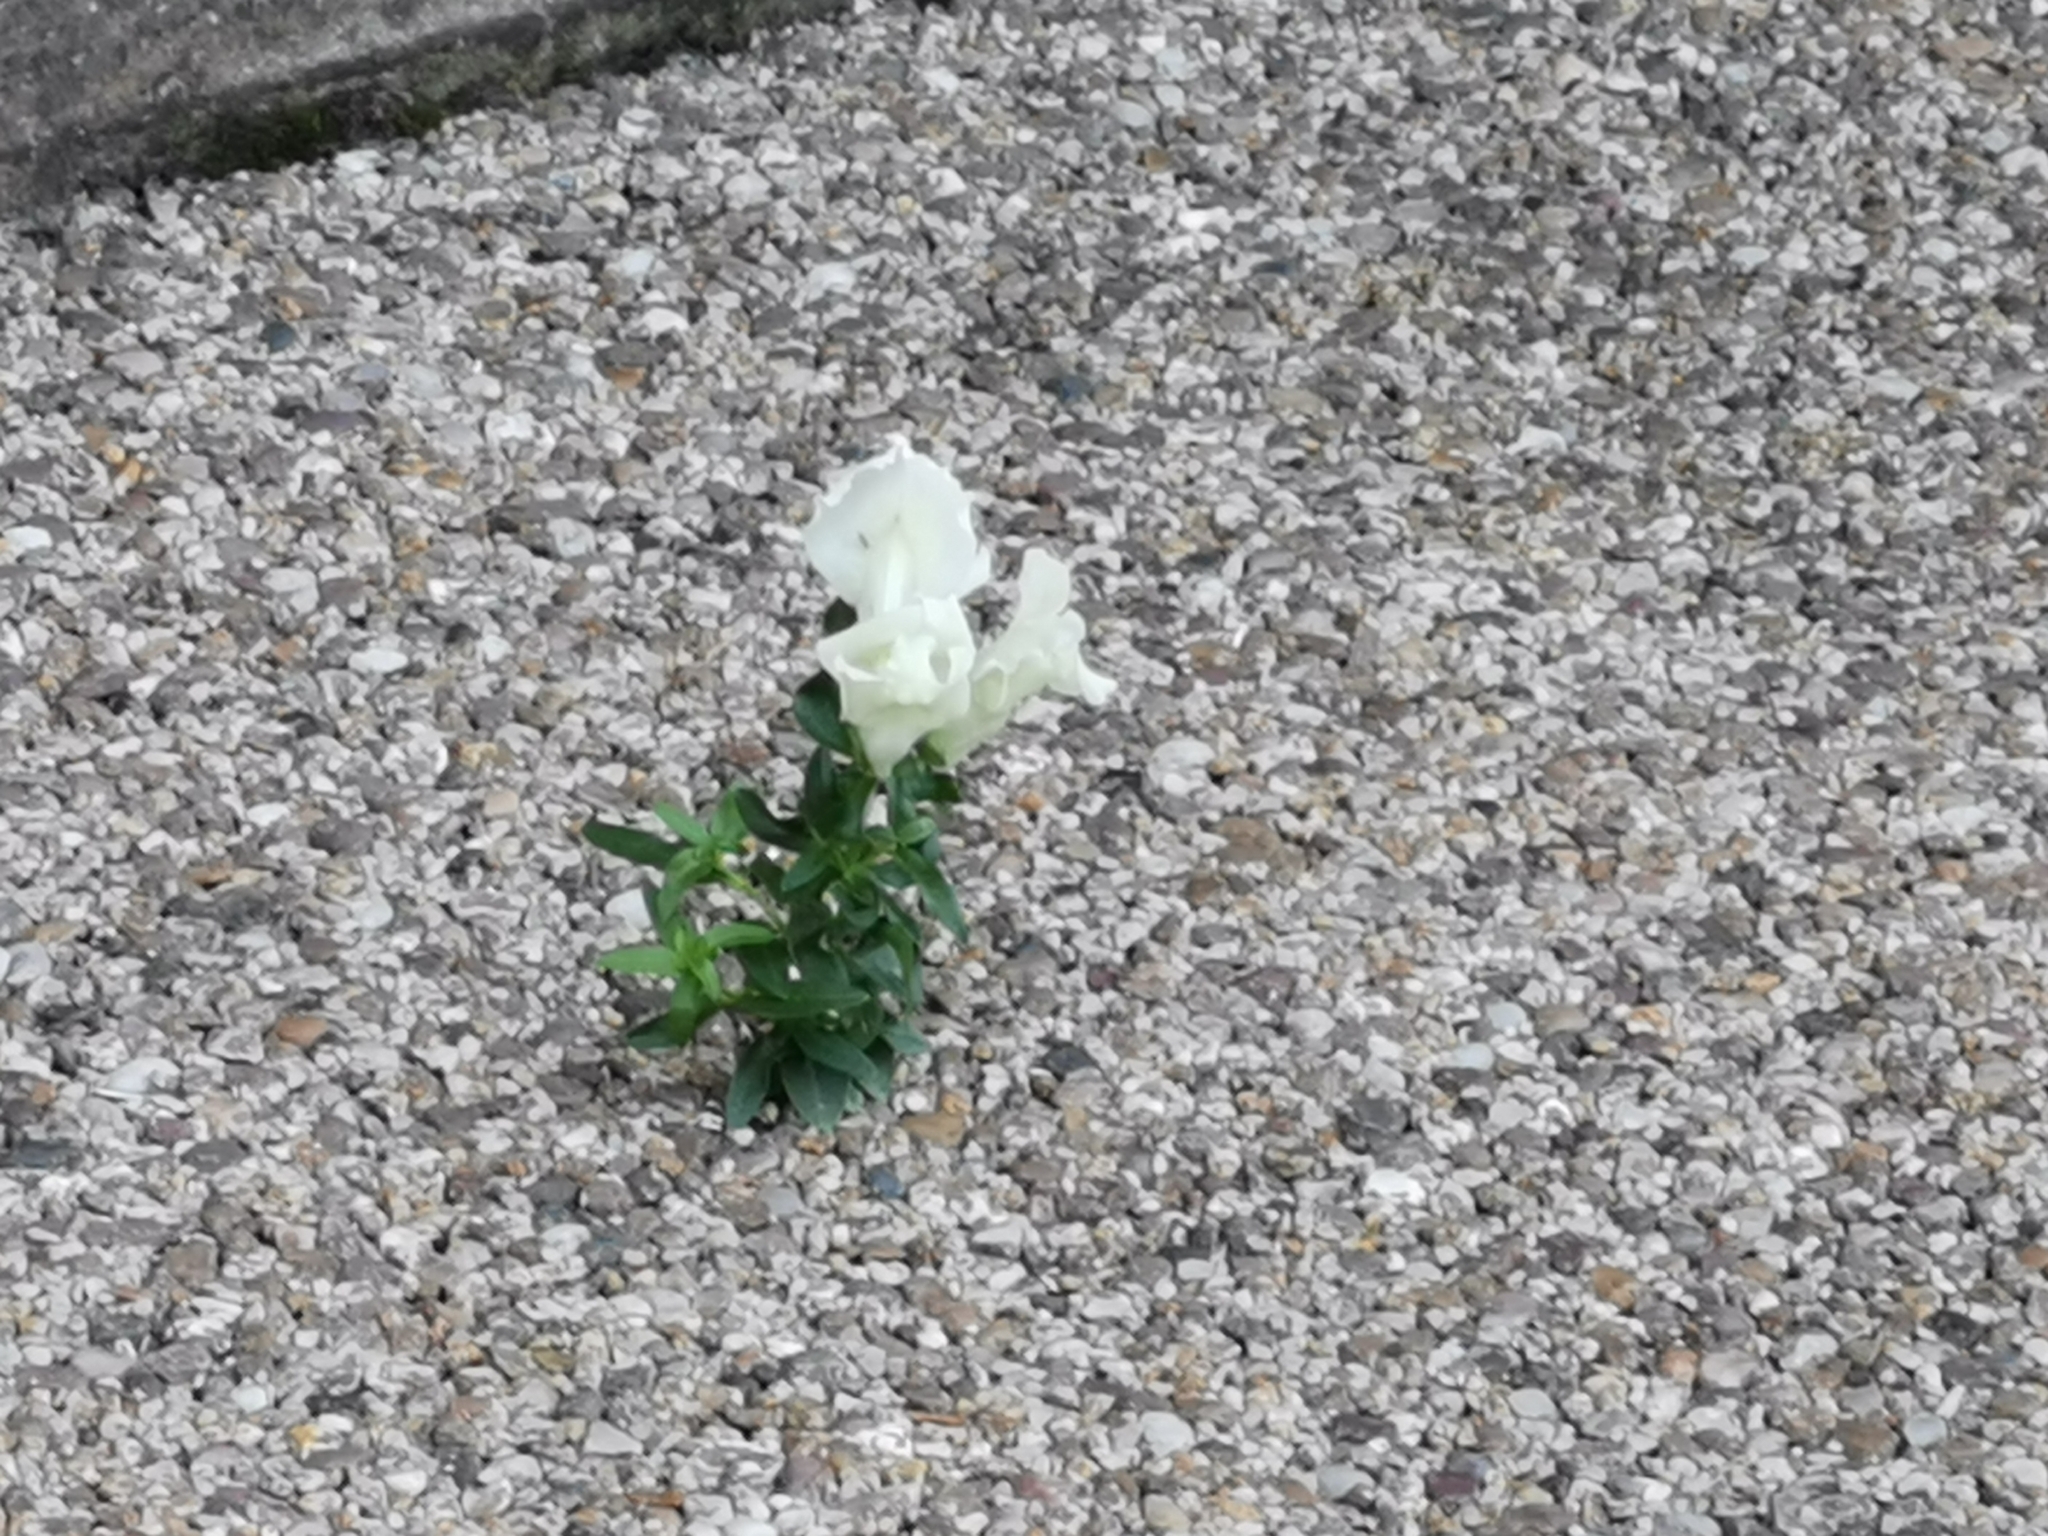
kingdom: Plantae
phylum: Tracheophyta
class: Magnoliopsida
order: Lamiales
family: Plantaginaceae
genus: Antirrhinum
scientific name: Antirrhinum majus
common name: Snapdragon
